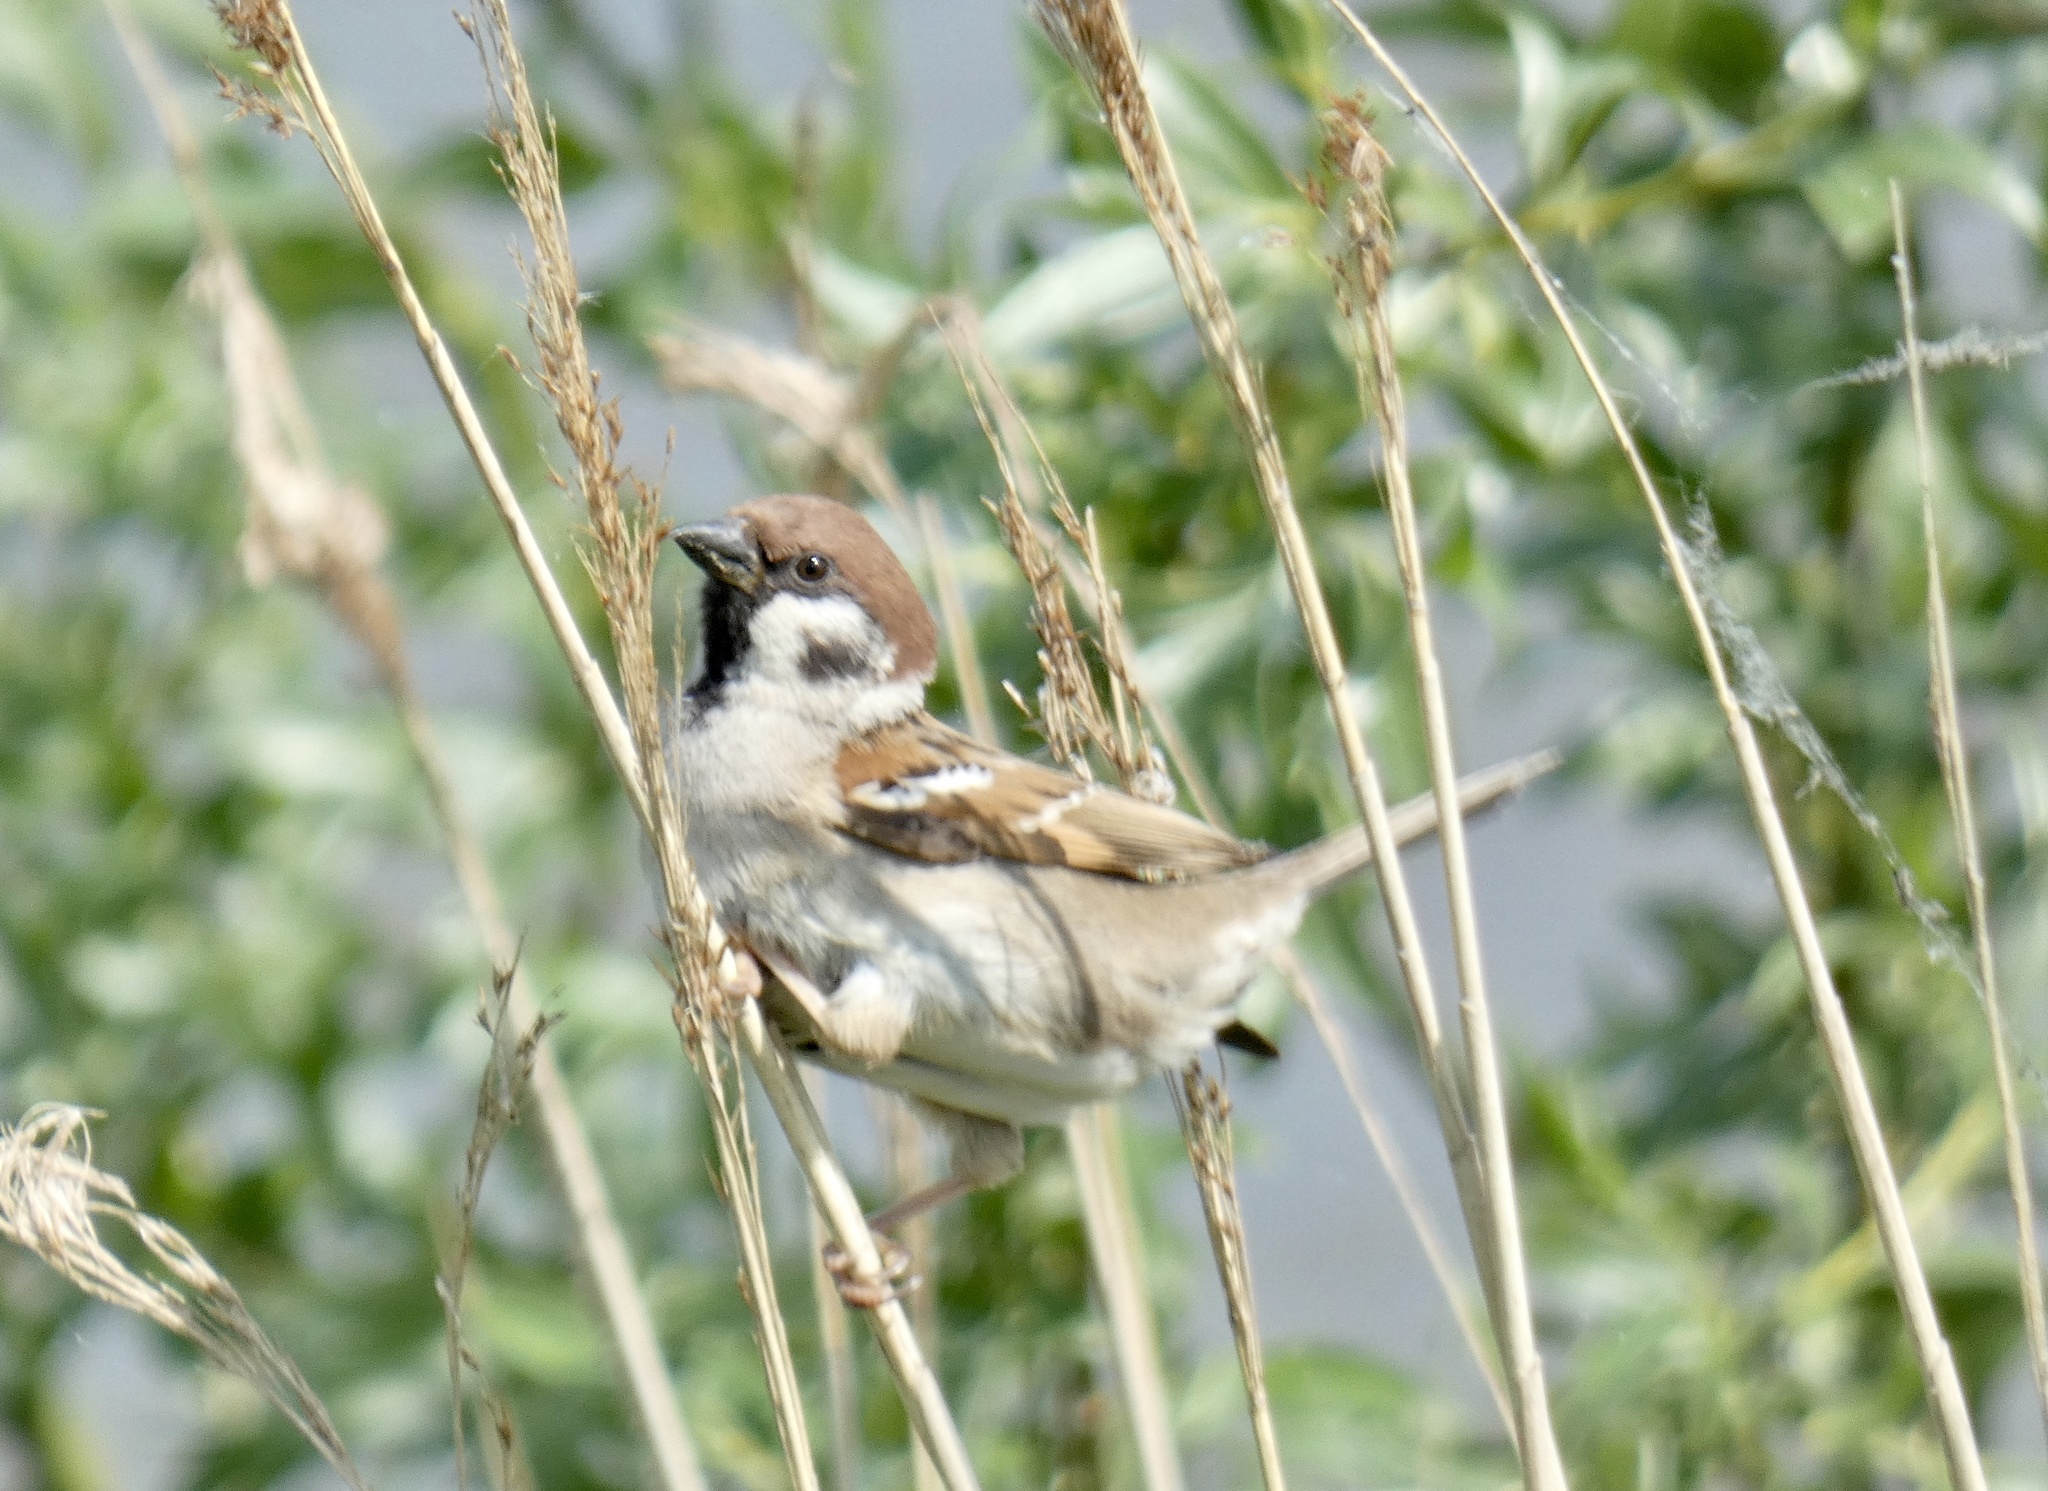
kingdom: Animalia
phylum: Chordata
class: Aves
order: Passeriformes
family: Passeridae
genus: Passer
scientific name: Passer montanus
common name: Eurasian tree sparrow
